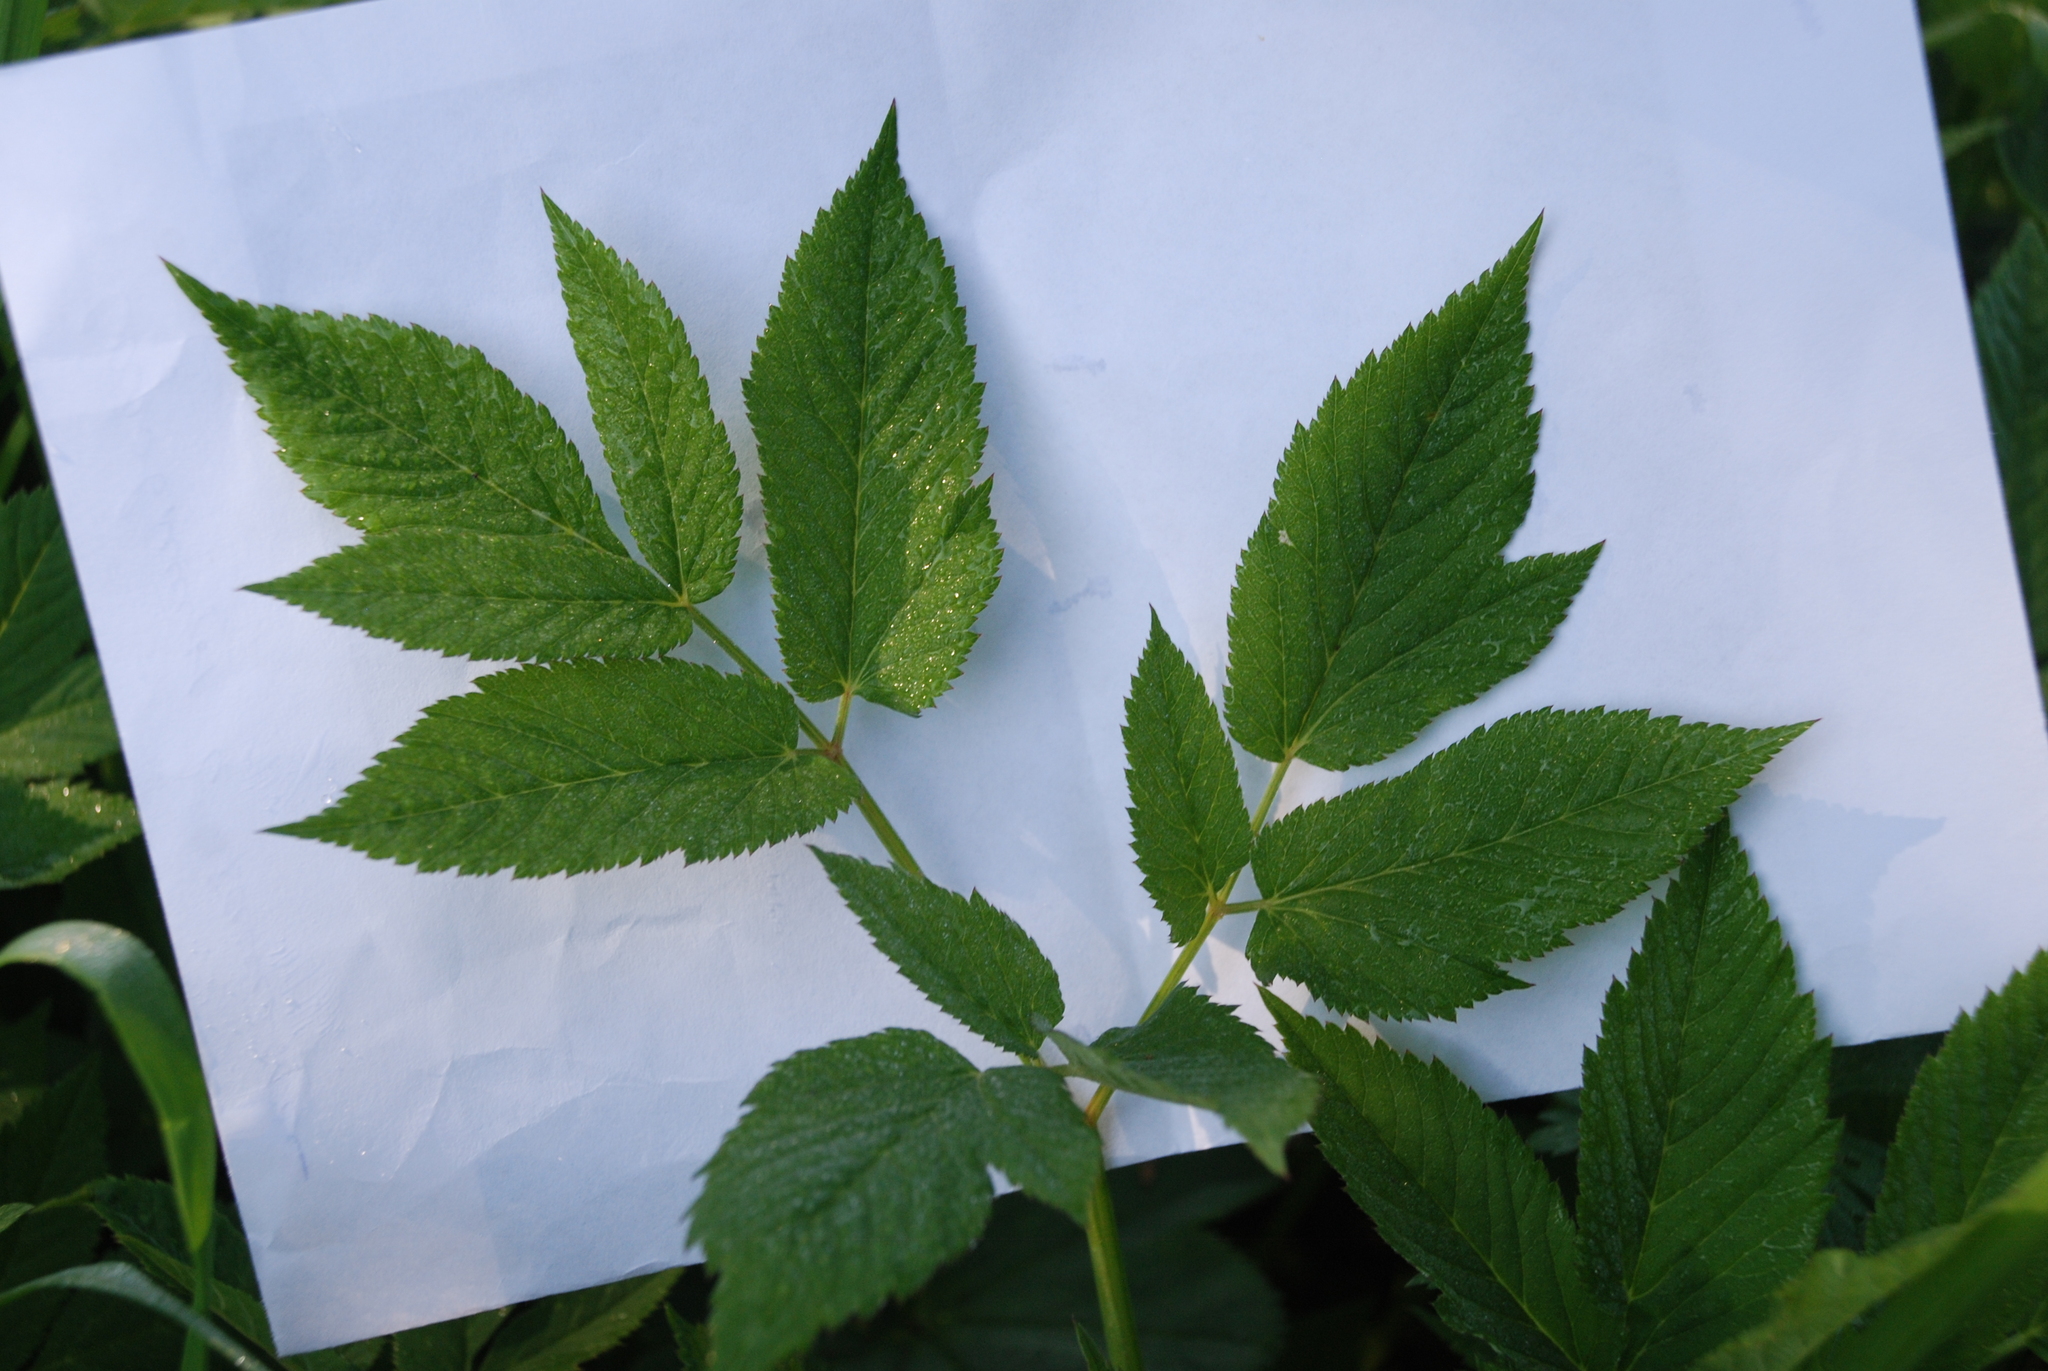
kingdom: Plantae
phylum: Tracheophyta
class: Magnoliopsida
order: Apiales
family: Apiaceae
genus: Aegopodium
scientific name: Aegopodium podagraria
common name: Ground-elder
